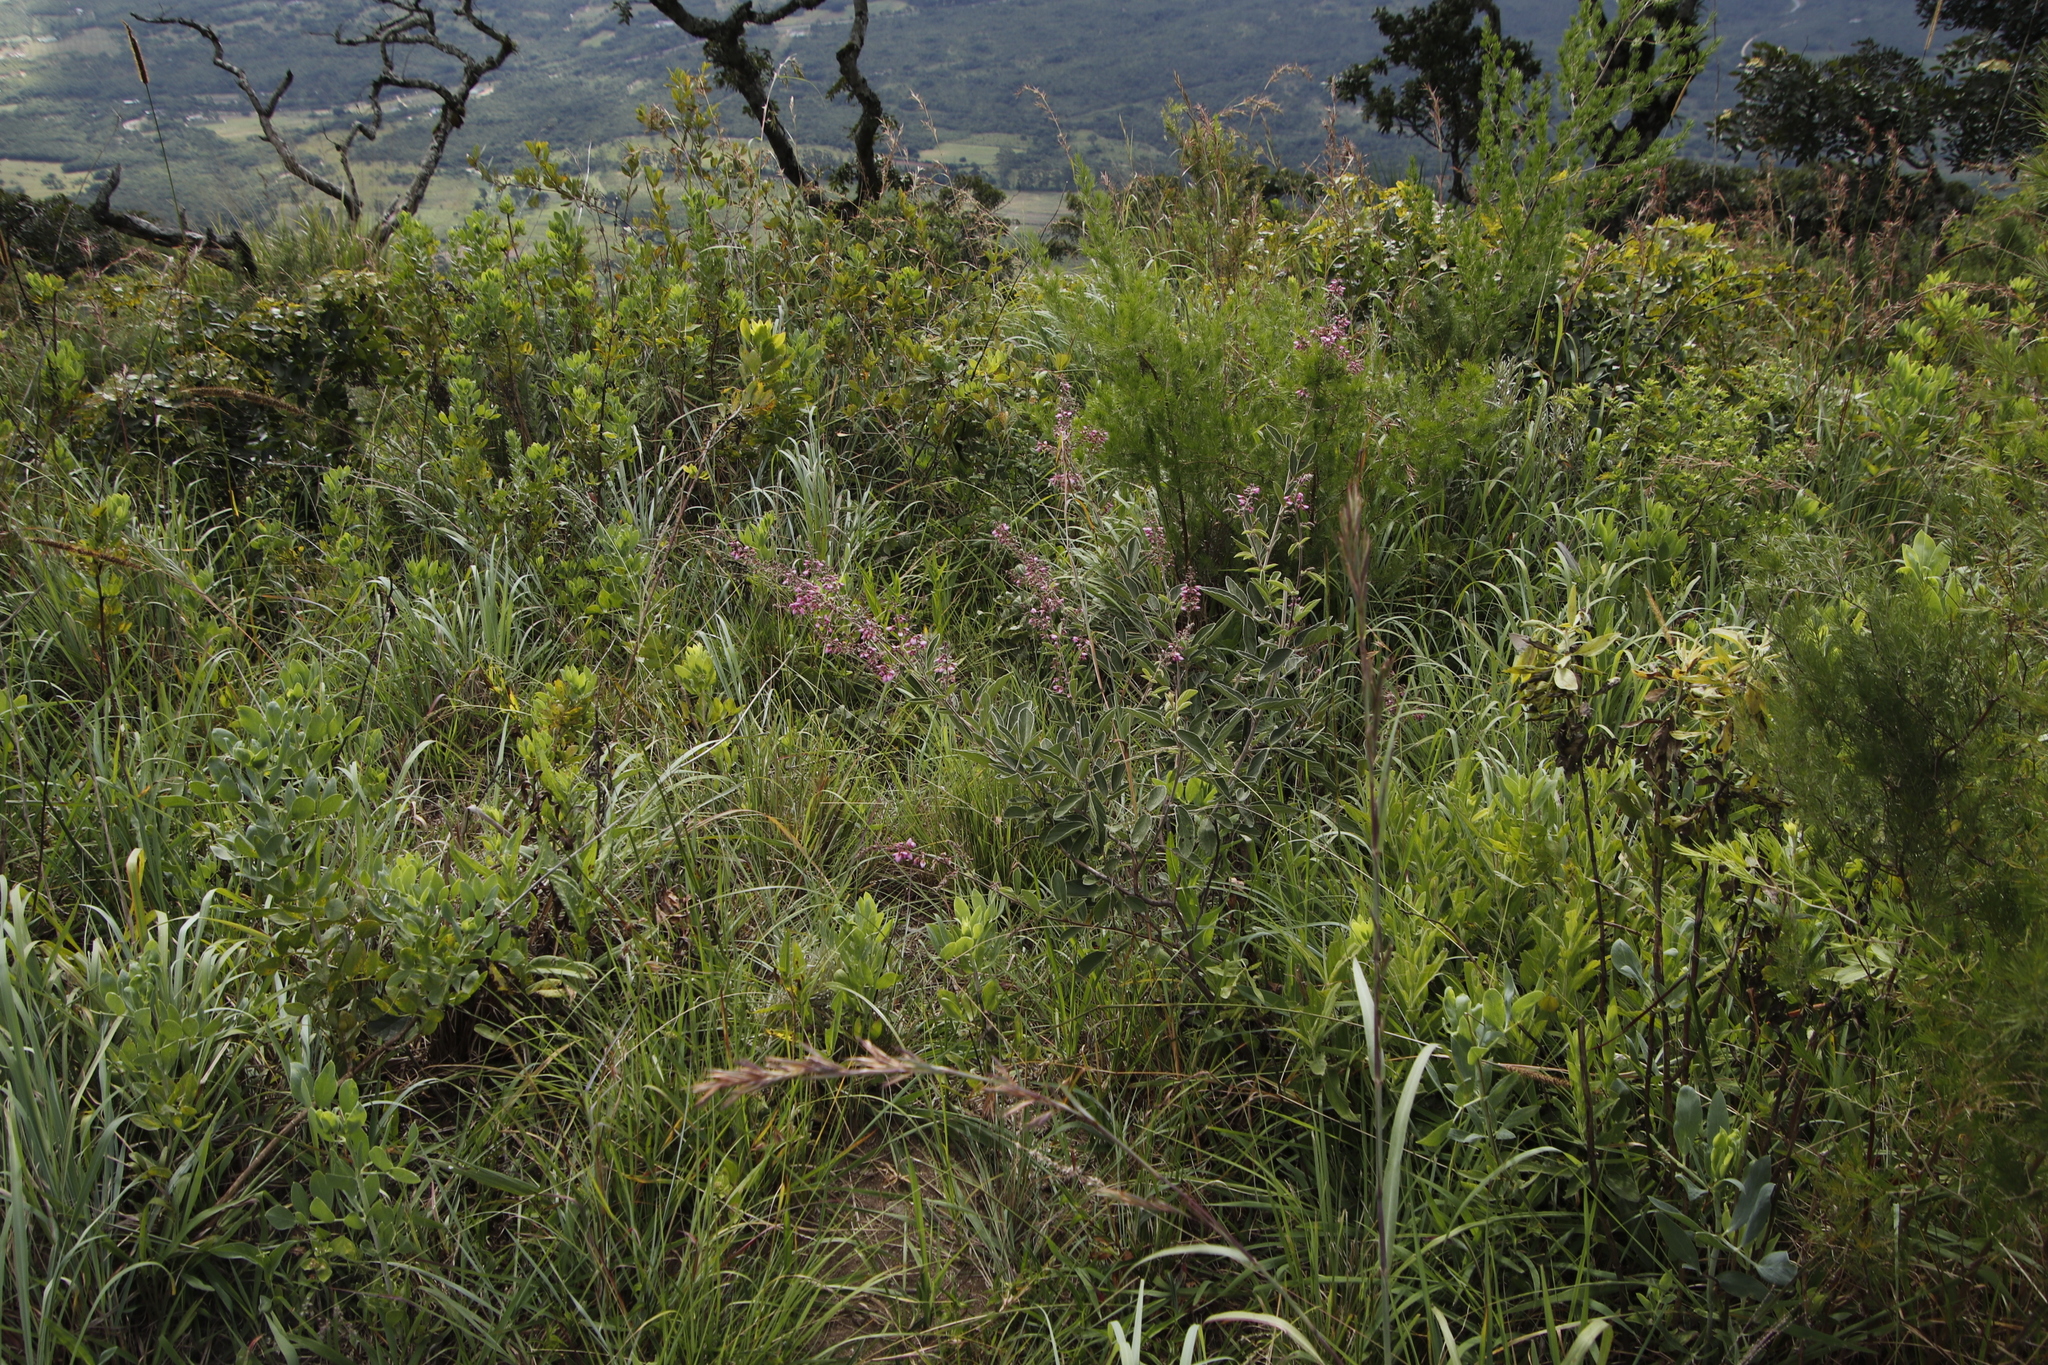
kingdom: Plantae
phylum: Tracheophyta
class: Magnoliopsida
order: Fabales
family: Fabaceae
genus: Pseudarthria
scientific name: Pseudarthria hookeri
